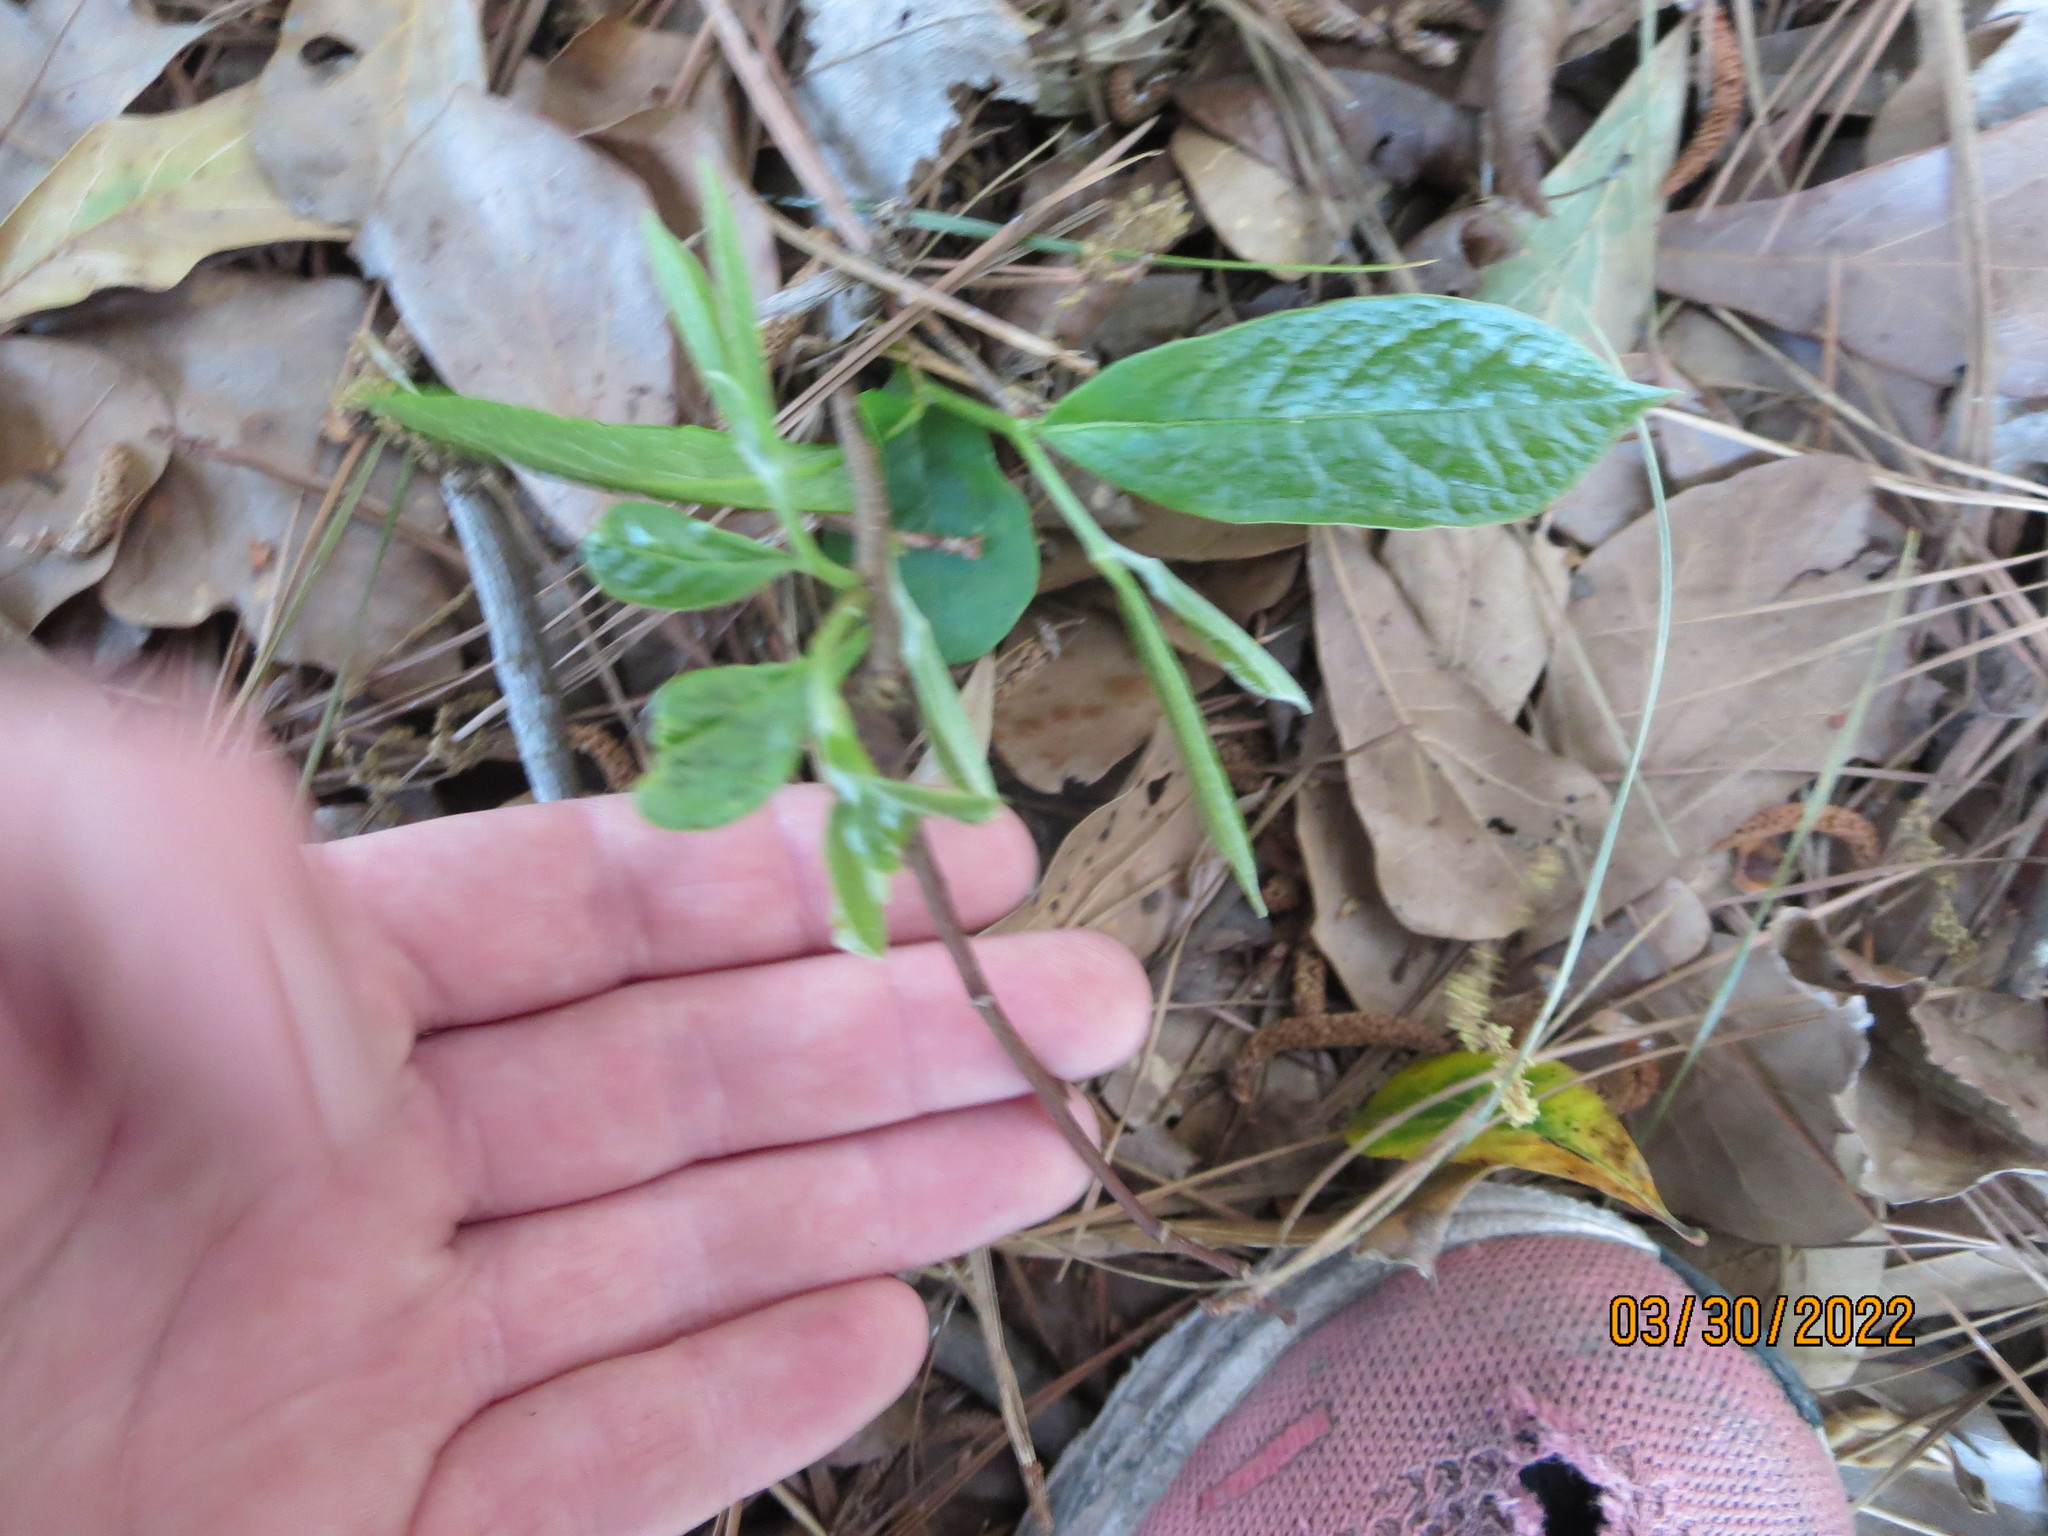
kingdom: Plantae
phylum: Tracheophyta
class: Magnoliopsida
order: Magnoliales
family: Annonaceae
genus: Asimina
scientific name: Asimina parviflora
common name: Dwarf pawpaw
